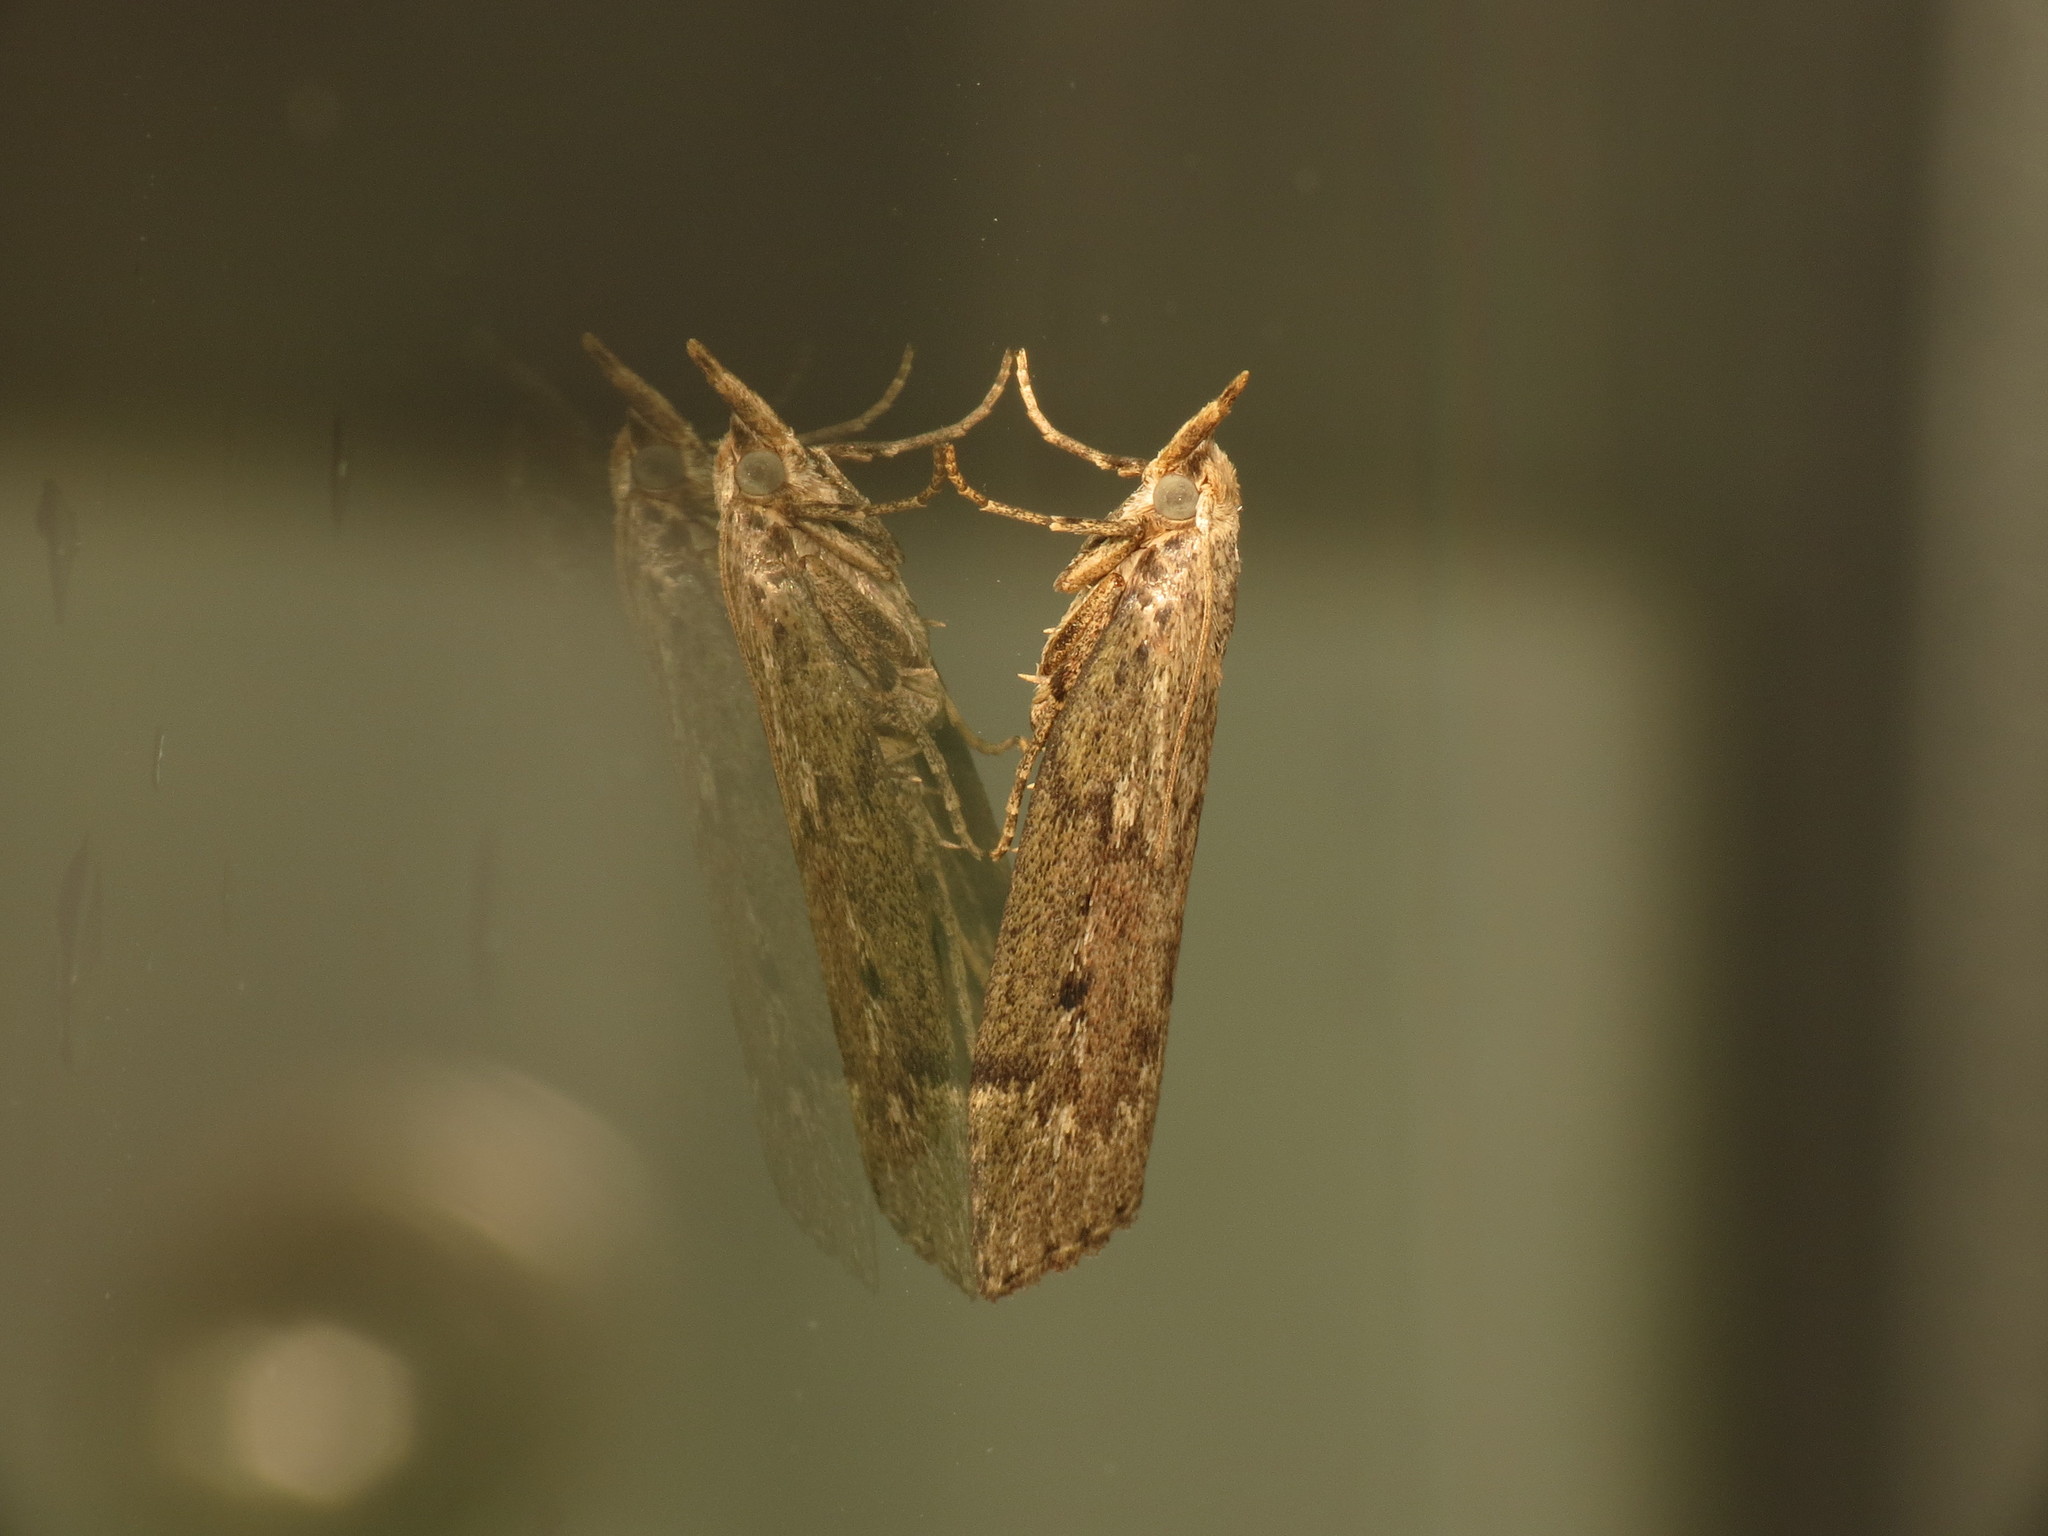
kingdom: Animalia
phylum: Arthropoda
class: Insecta
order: Lepidoptera
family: Pyralidae
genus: Aphomia
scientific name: Aphomia sociella
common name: Bee moth
